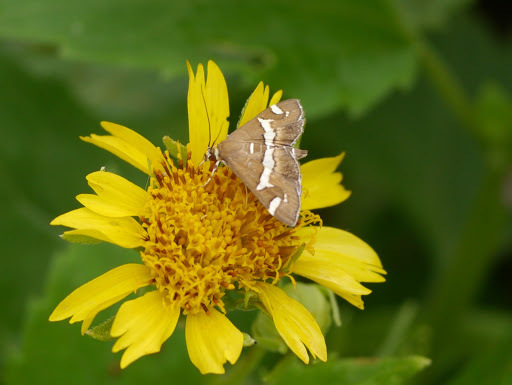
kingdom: Animalia
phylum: Arthropoda
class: Insecta
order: Lepidoptera
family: Crambidae
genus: Spoladea
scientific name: Spoladea recurvalis
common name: Beet webworm moth
